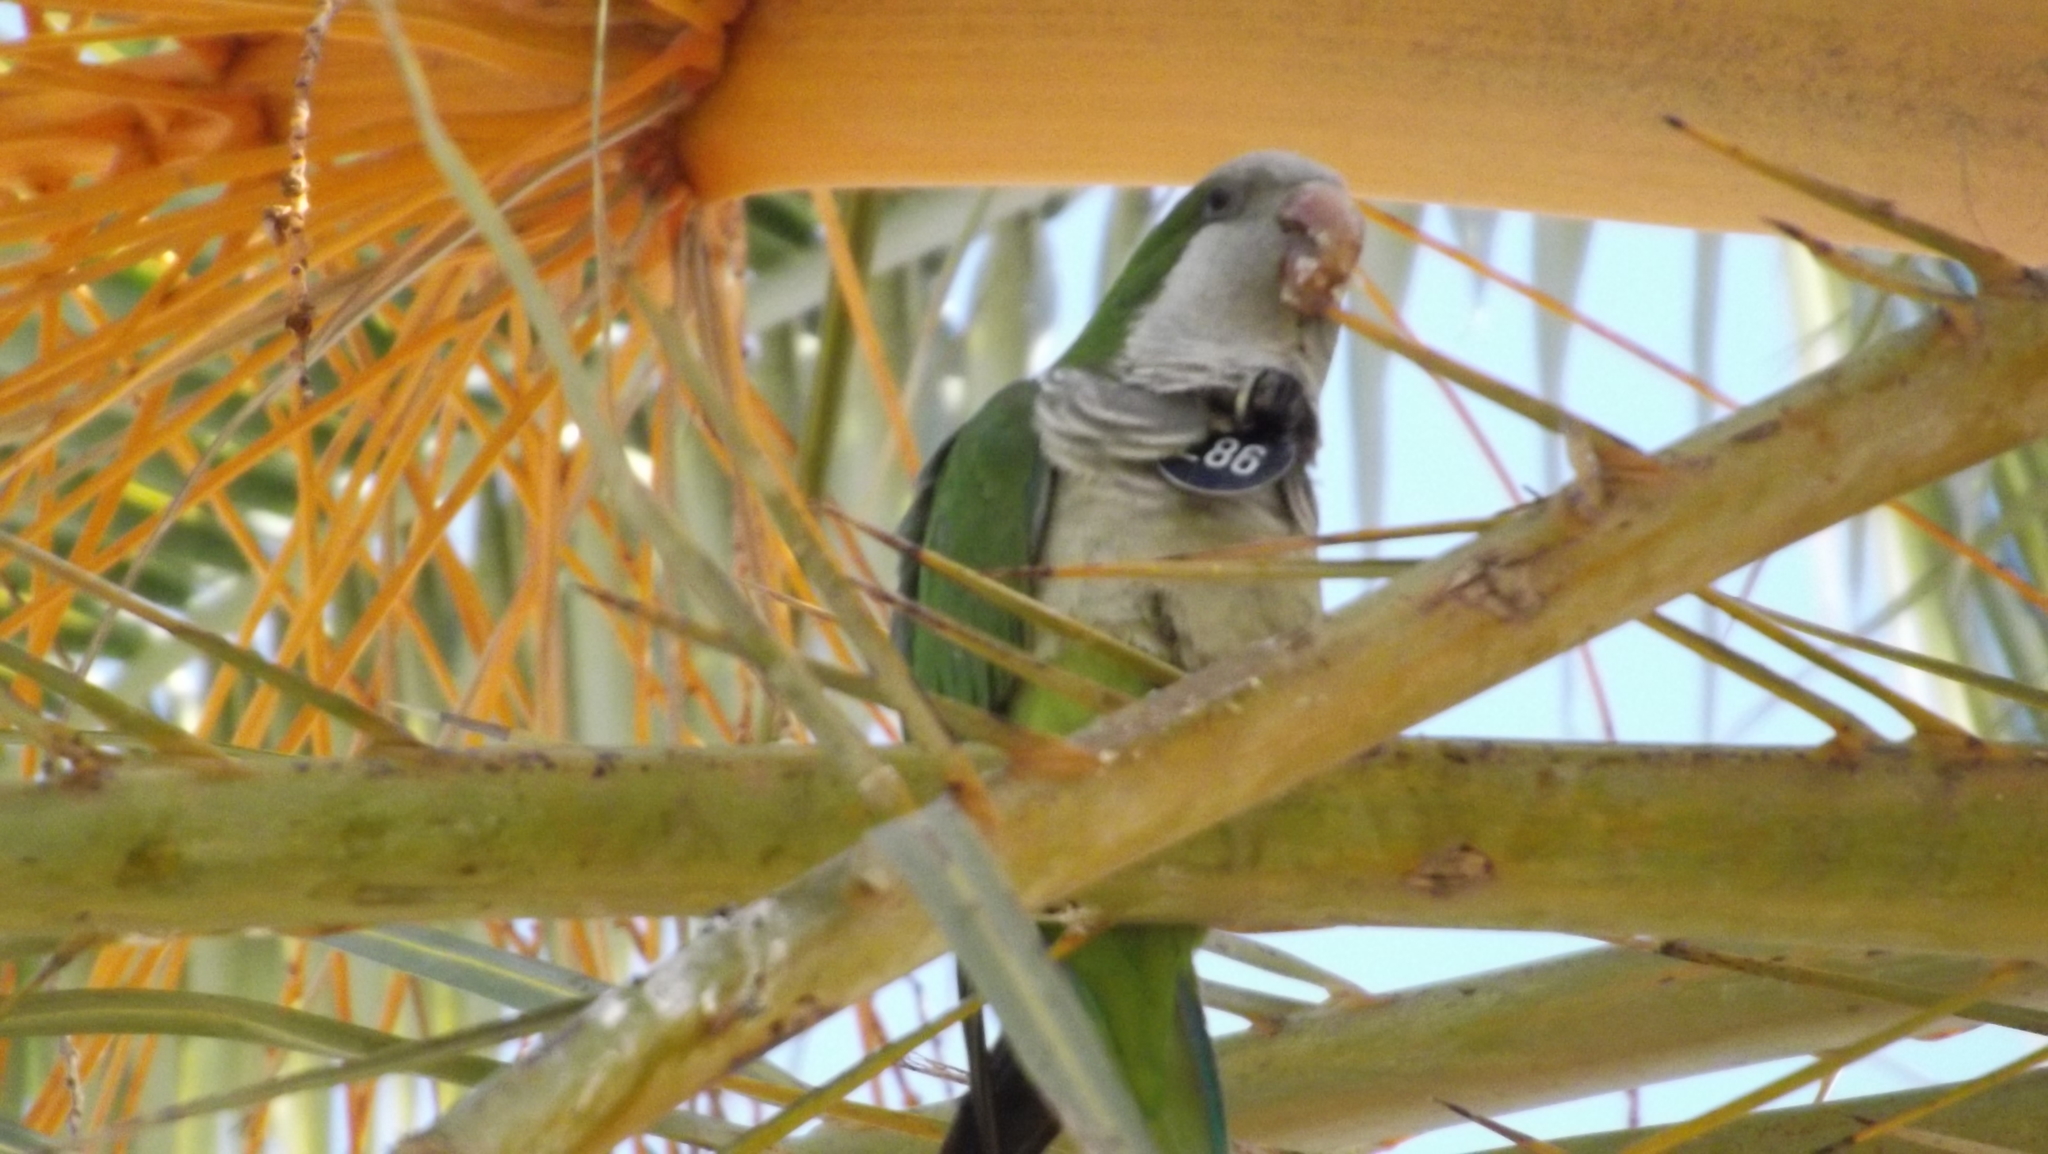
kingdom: Animalia
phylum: Chordata
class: Aves
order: Psittaciformes
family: Psittacidae
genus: Myiopsitta
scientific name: Myiopsitta monachus
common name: Monk parakeet
